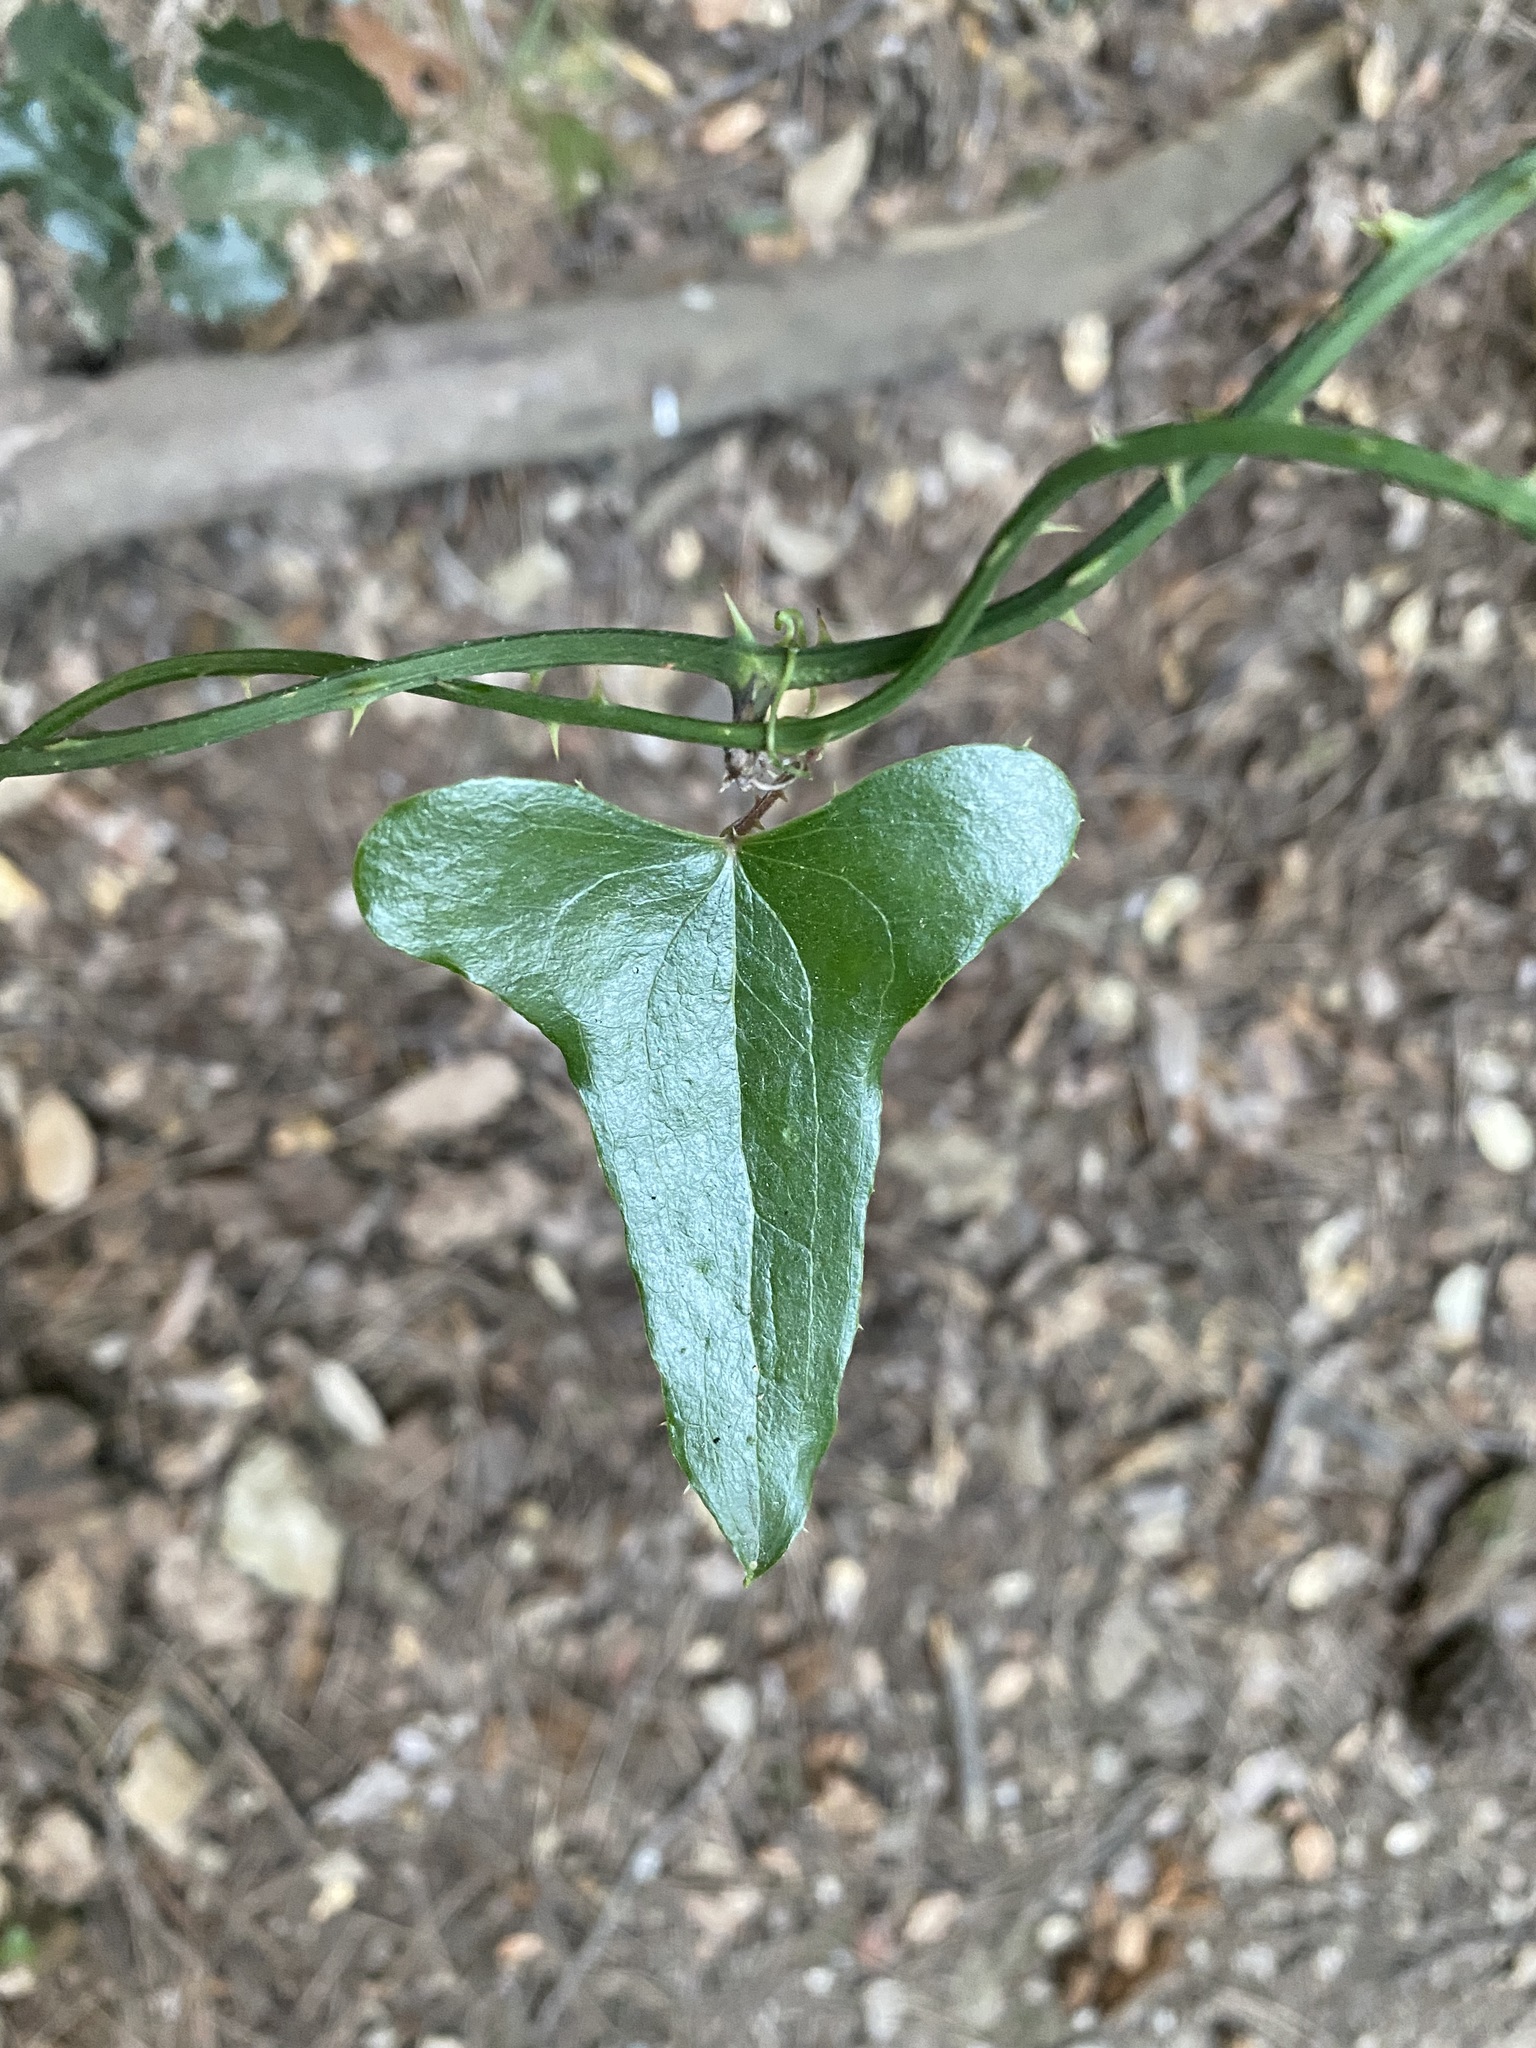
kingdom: Plantae
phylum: Tracheophyta
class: Liliopsida
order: Liliales
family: Smilacaceae
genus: Smilax
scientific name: Smilax aspera
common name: Common smilax
